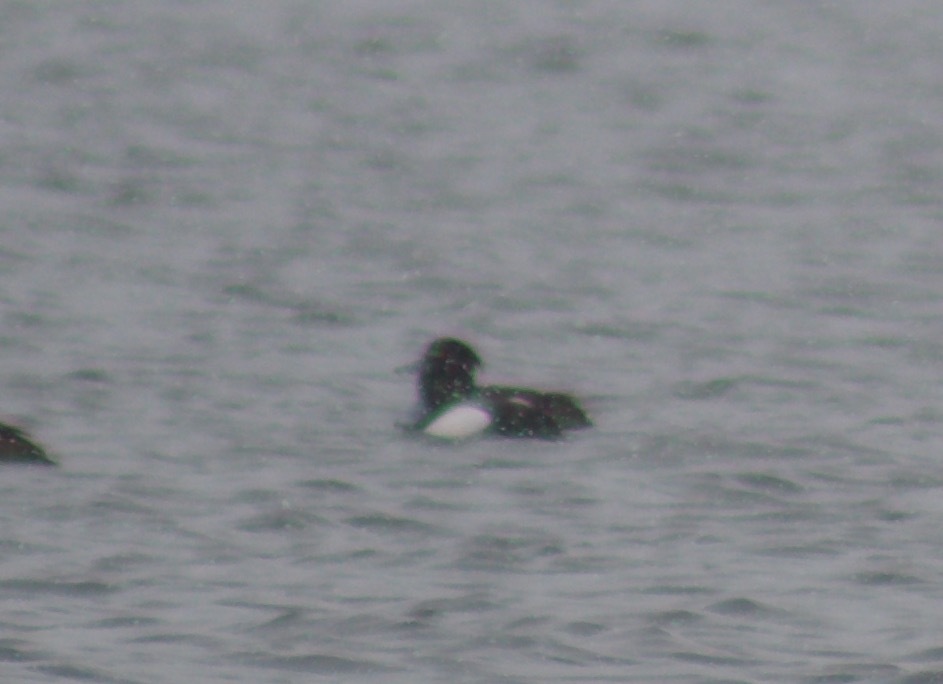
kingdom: Animalia
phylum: Chordata
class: Aves
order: Anseriformes
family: Anatidae
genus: Bucephala
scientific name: Bucephala clangula
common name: Common goldeneye
